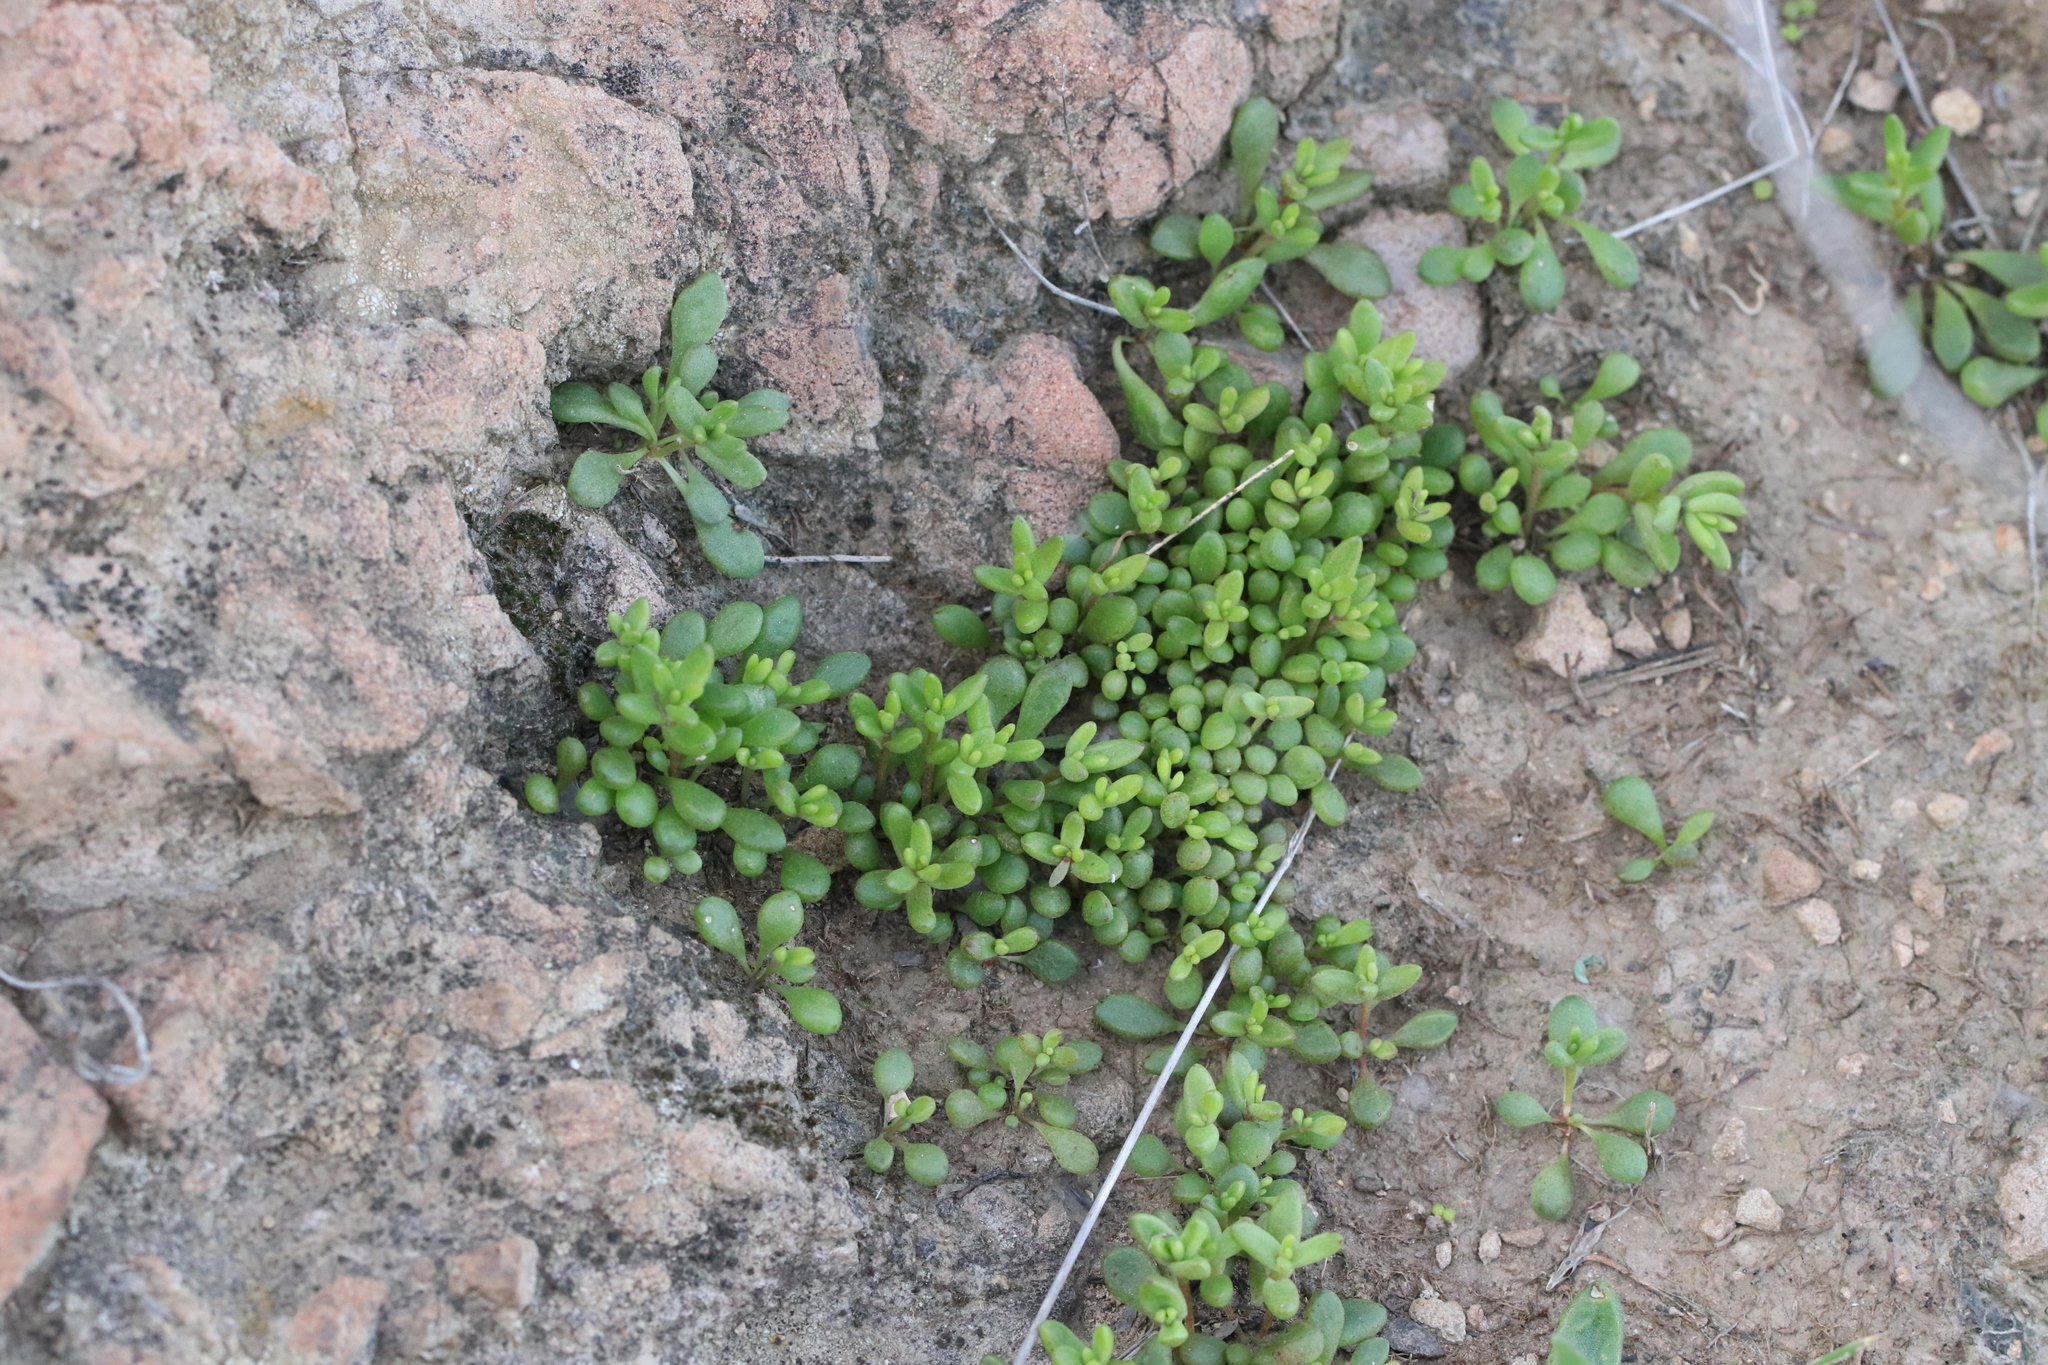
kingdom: Plantae
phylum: Tracheophyta
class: Magnoliopsida
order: Saxifragales
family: Crassulaceae
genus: Dudleya
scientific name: Dudleya blochmaniae
